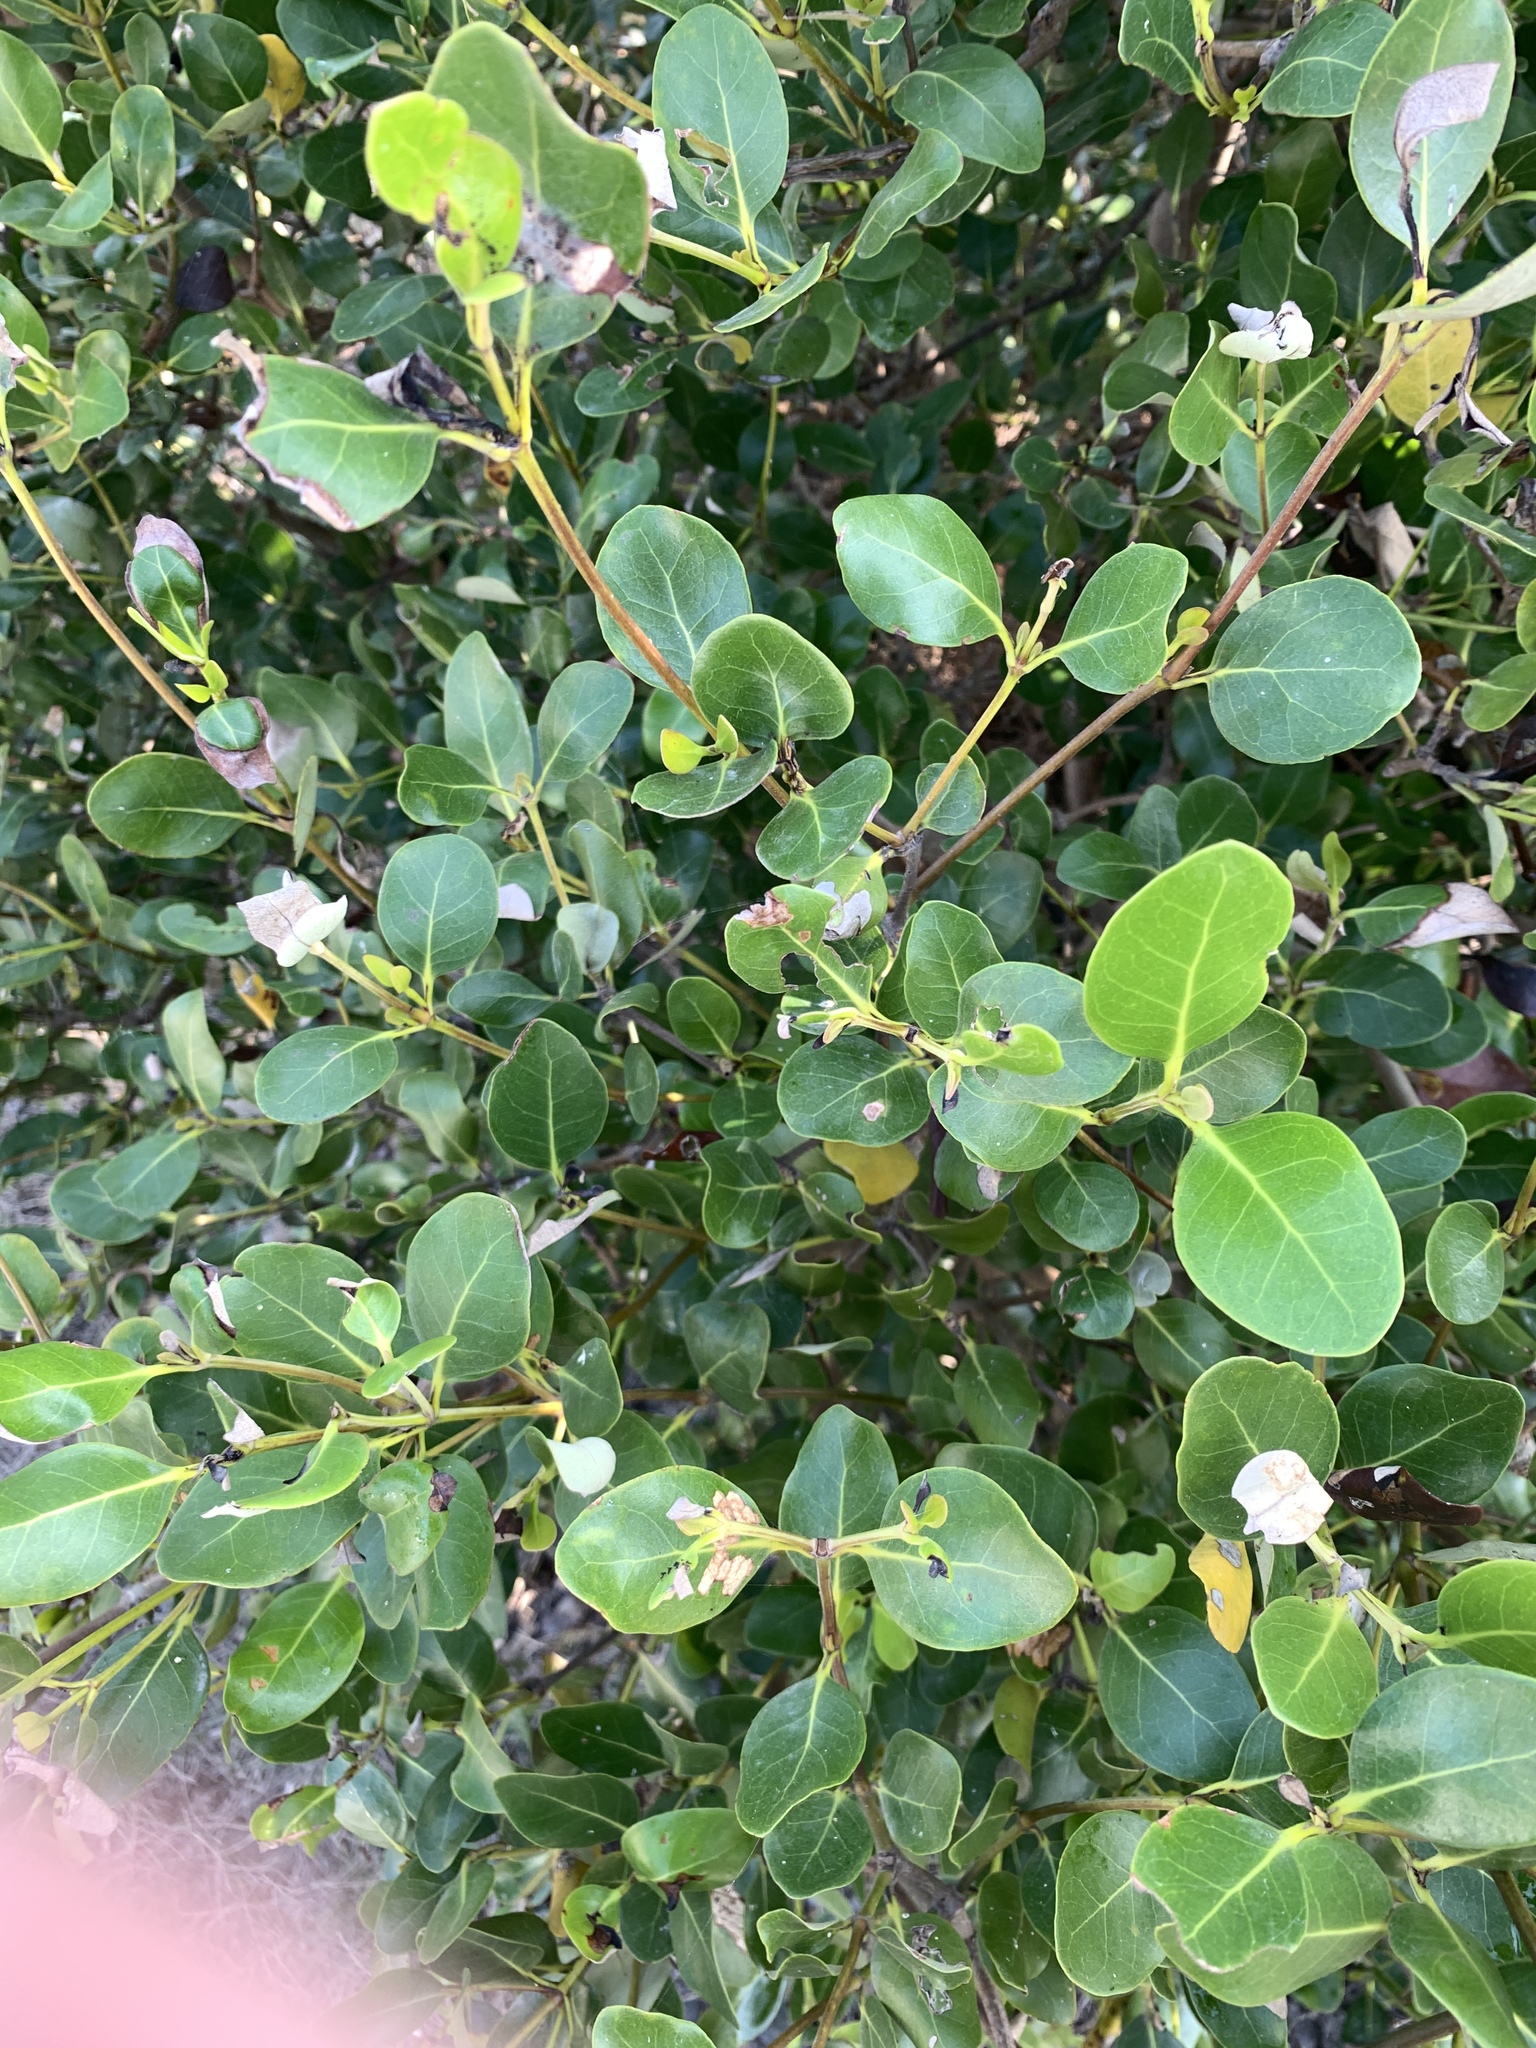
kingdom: Plantae
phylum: Tracheophyta
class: Magnoliopsida
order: Lamiales
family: Acanthaceae
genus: Avicennia
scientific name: Avicennia marina
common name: Gray mangrove
